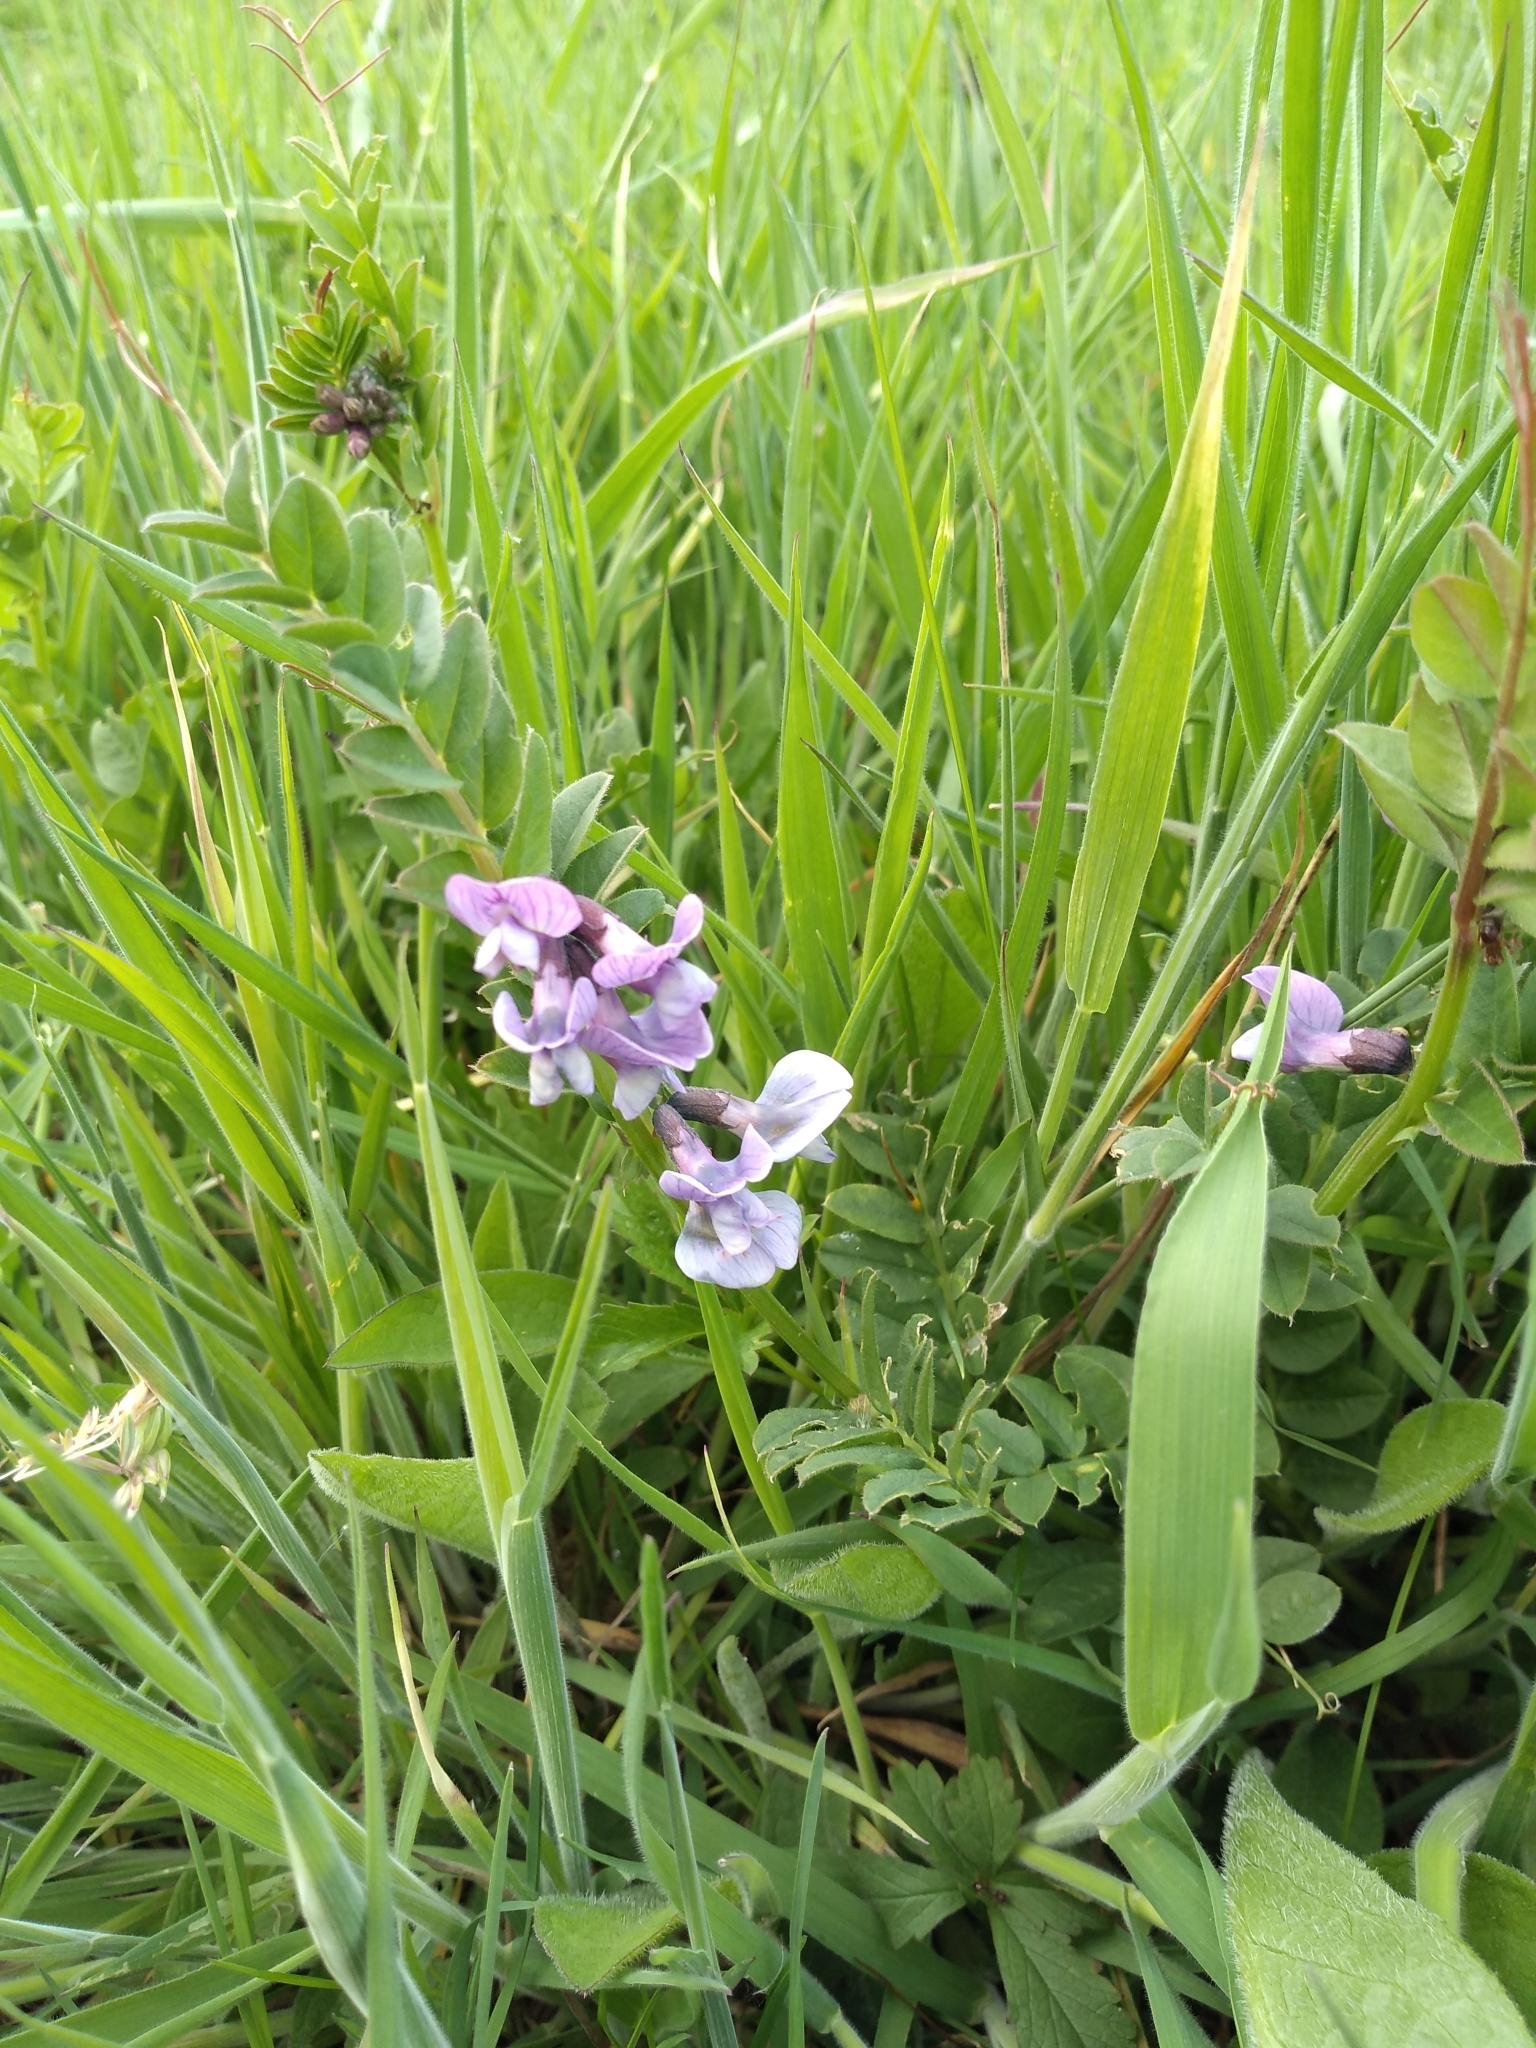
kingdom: Plantae
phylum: Tracheophyta
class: Magnoliopsida
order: Fabales
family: Fabaceae
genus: Vicia
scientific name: Vicia sepium
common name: Bush vetch
